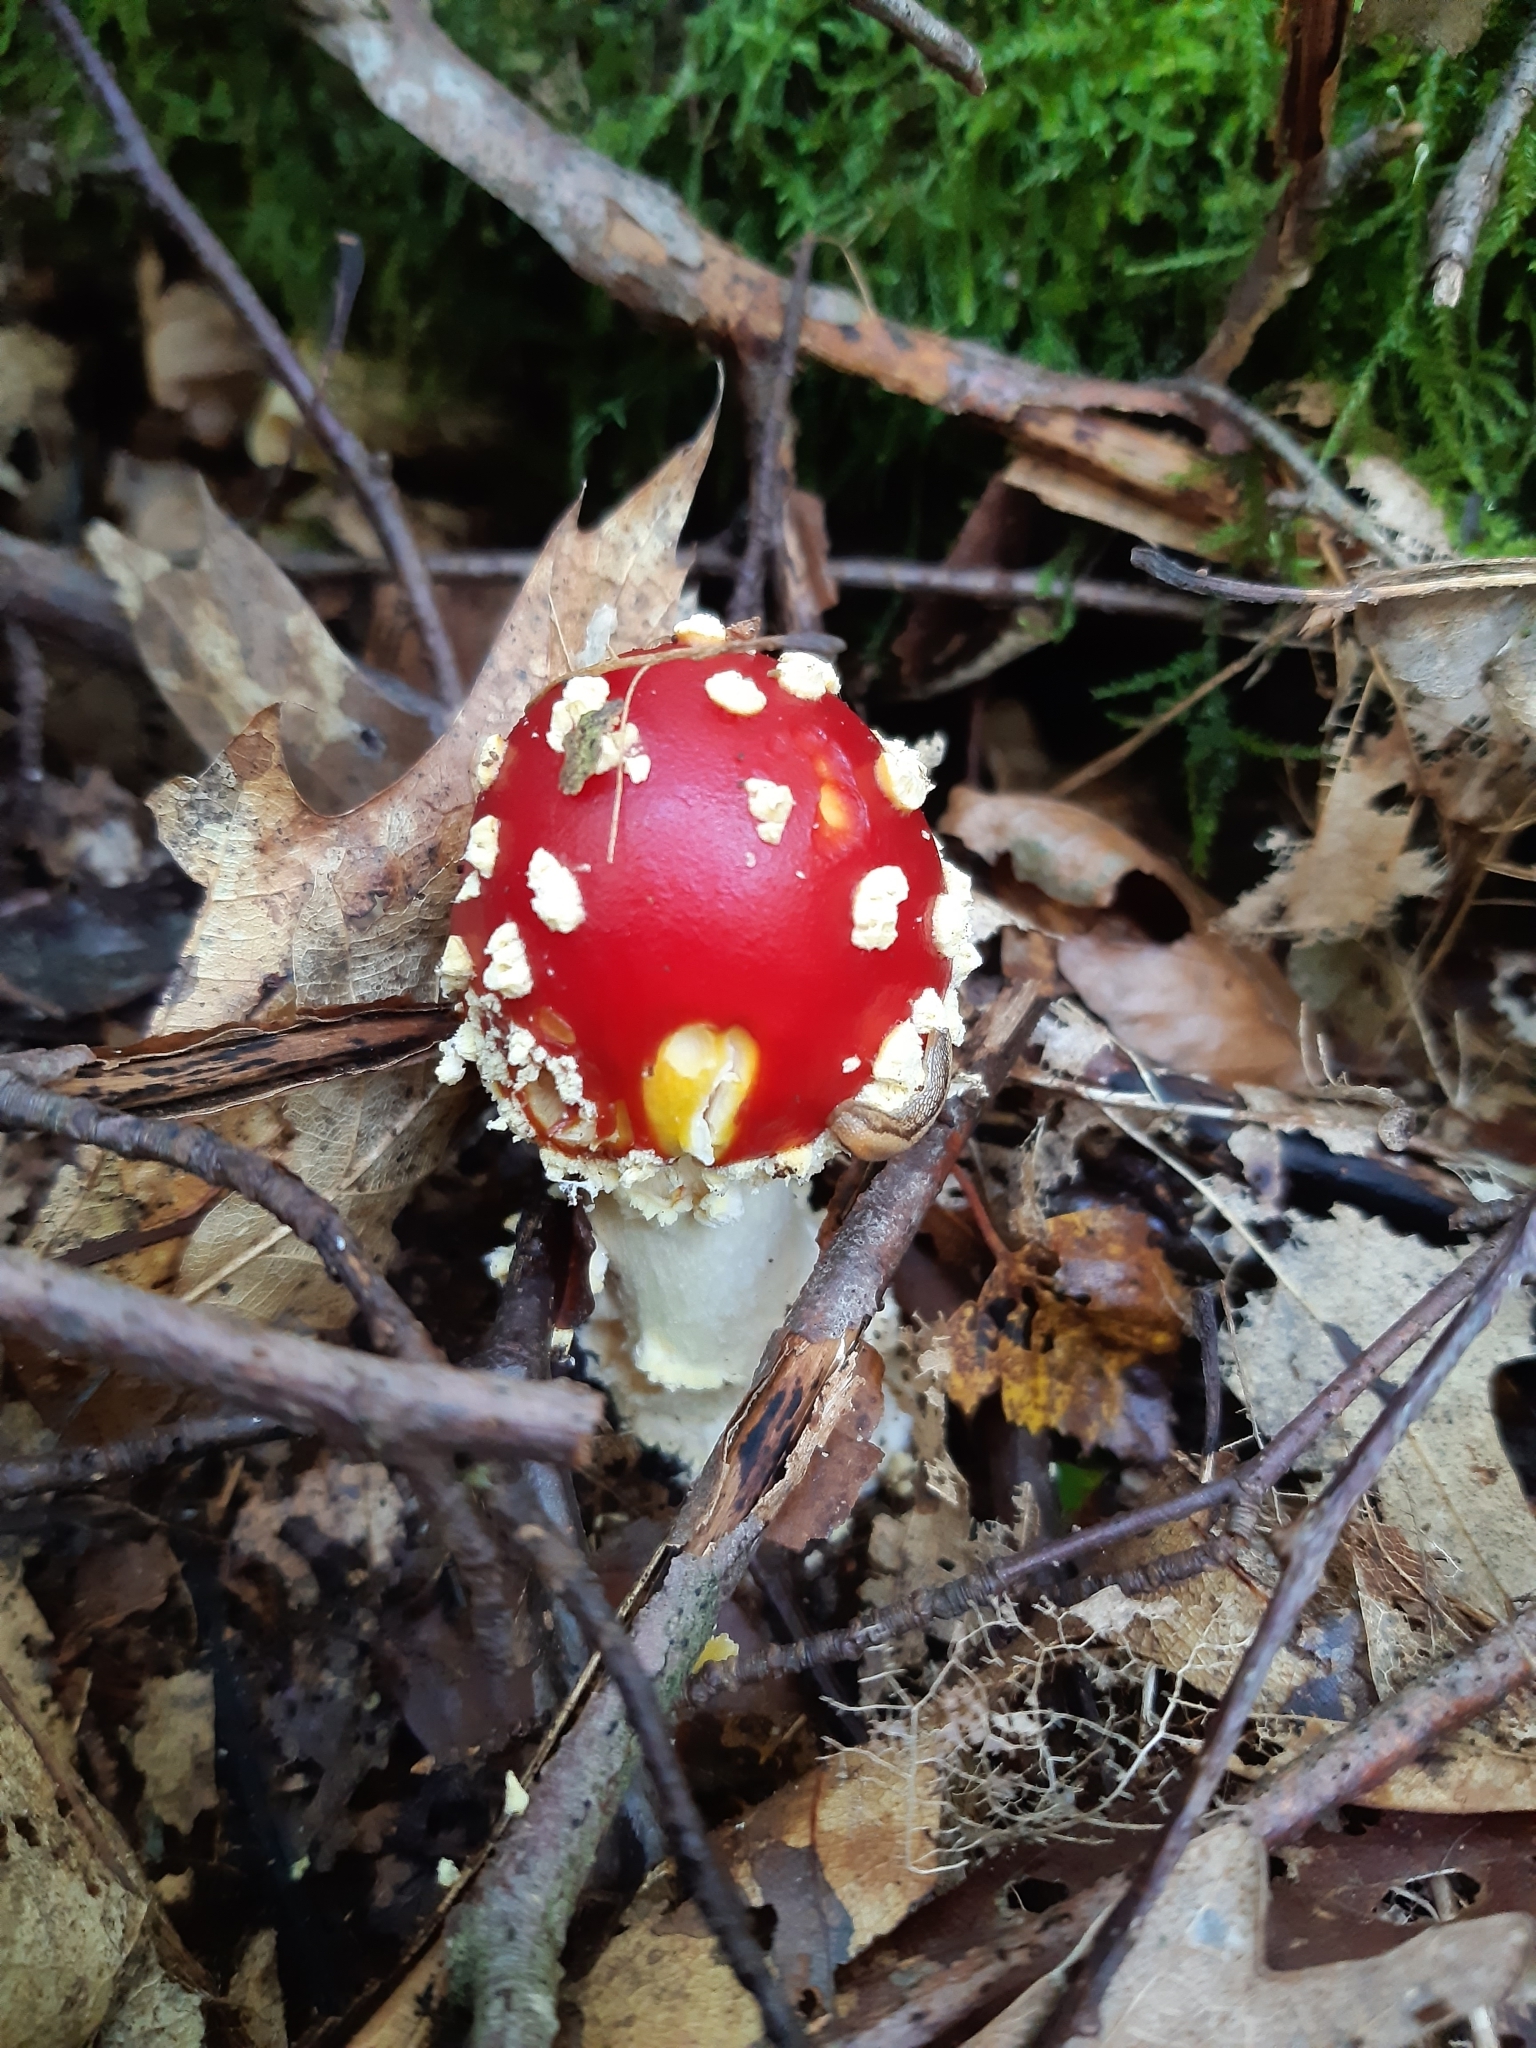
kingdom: Fungi
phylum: Basidiomycota
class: Agaricomycetes
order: Agaricales
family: Amanitaceae
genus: Amanita
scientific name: Amanita muscaria
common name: Fly agaric
